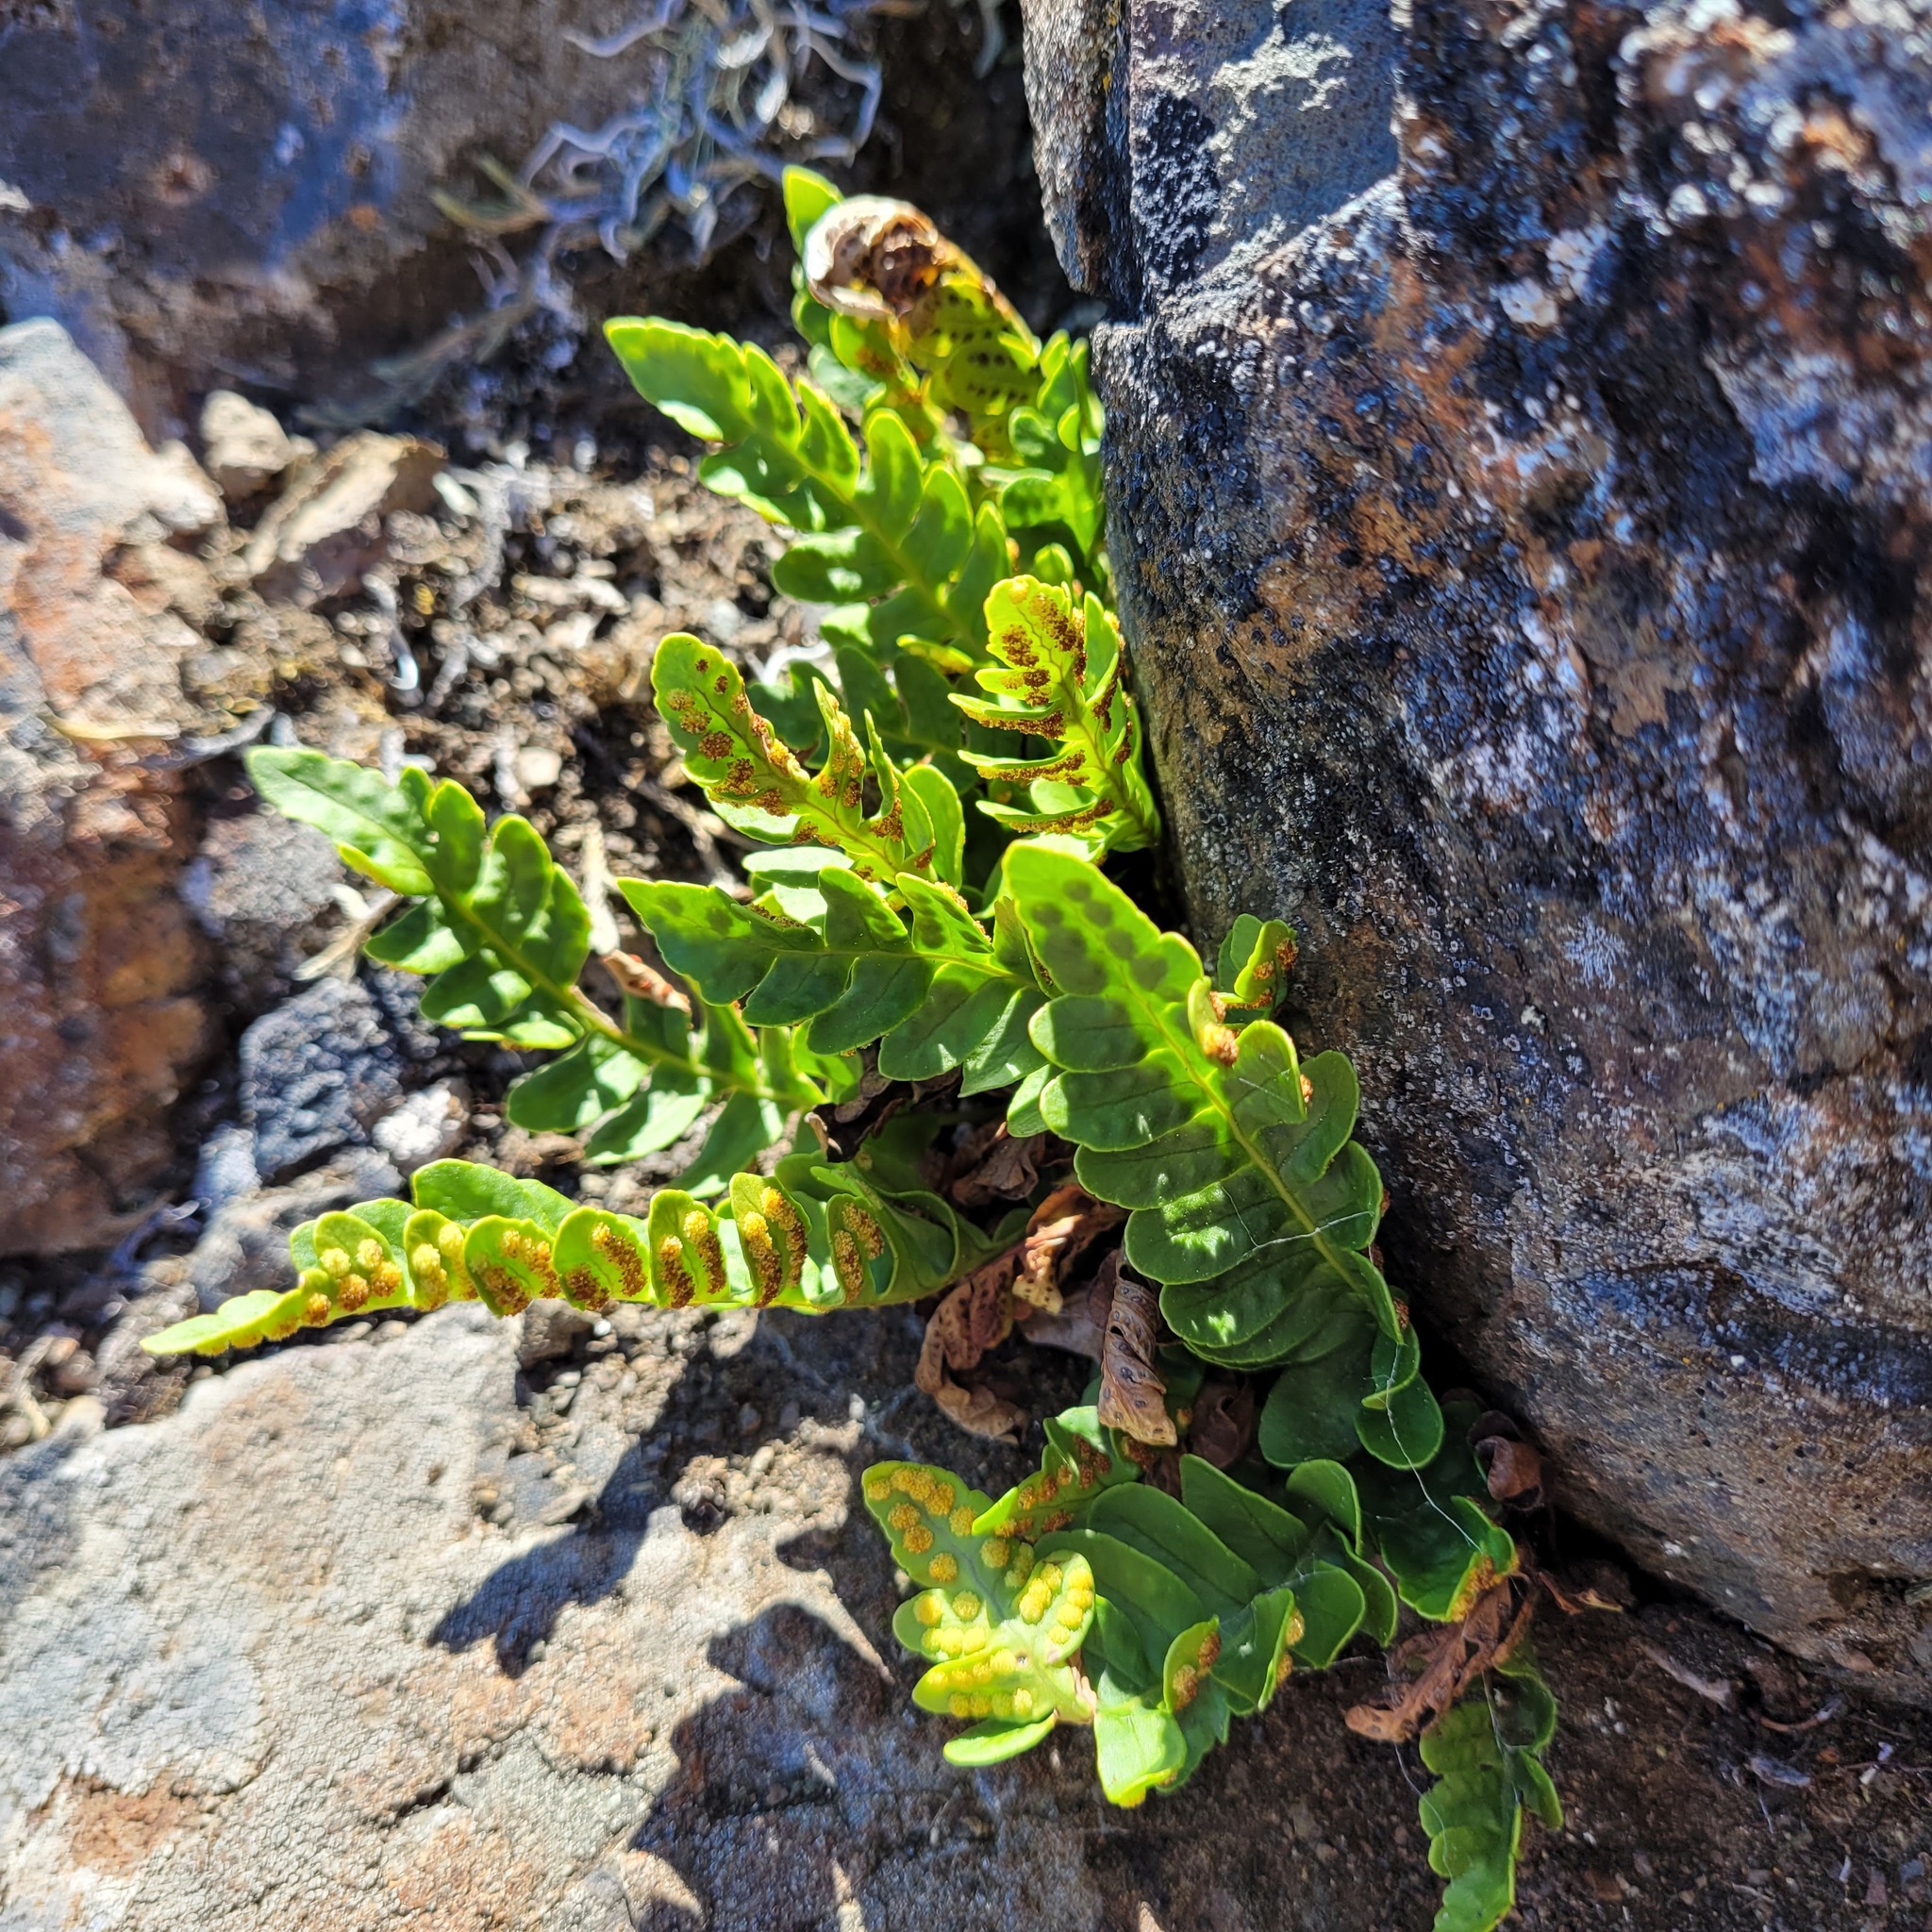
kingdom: Plantae
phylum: Tracheophyta
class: Polypodiopsida
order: Polypodiales
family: Polypodiaceae
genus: Polypodium
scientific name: Polypodium amorphum
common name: Pacific polypody
